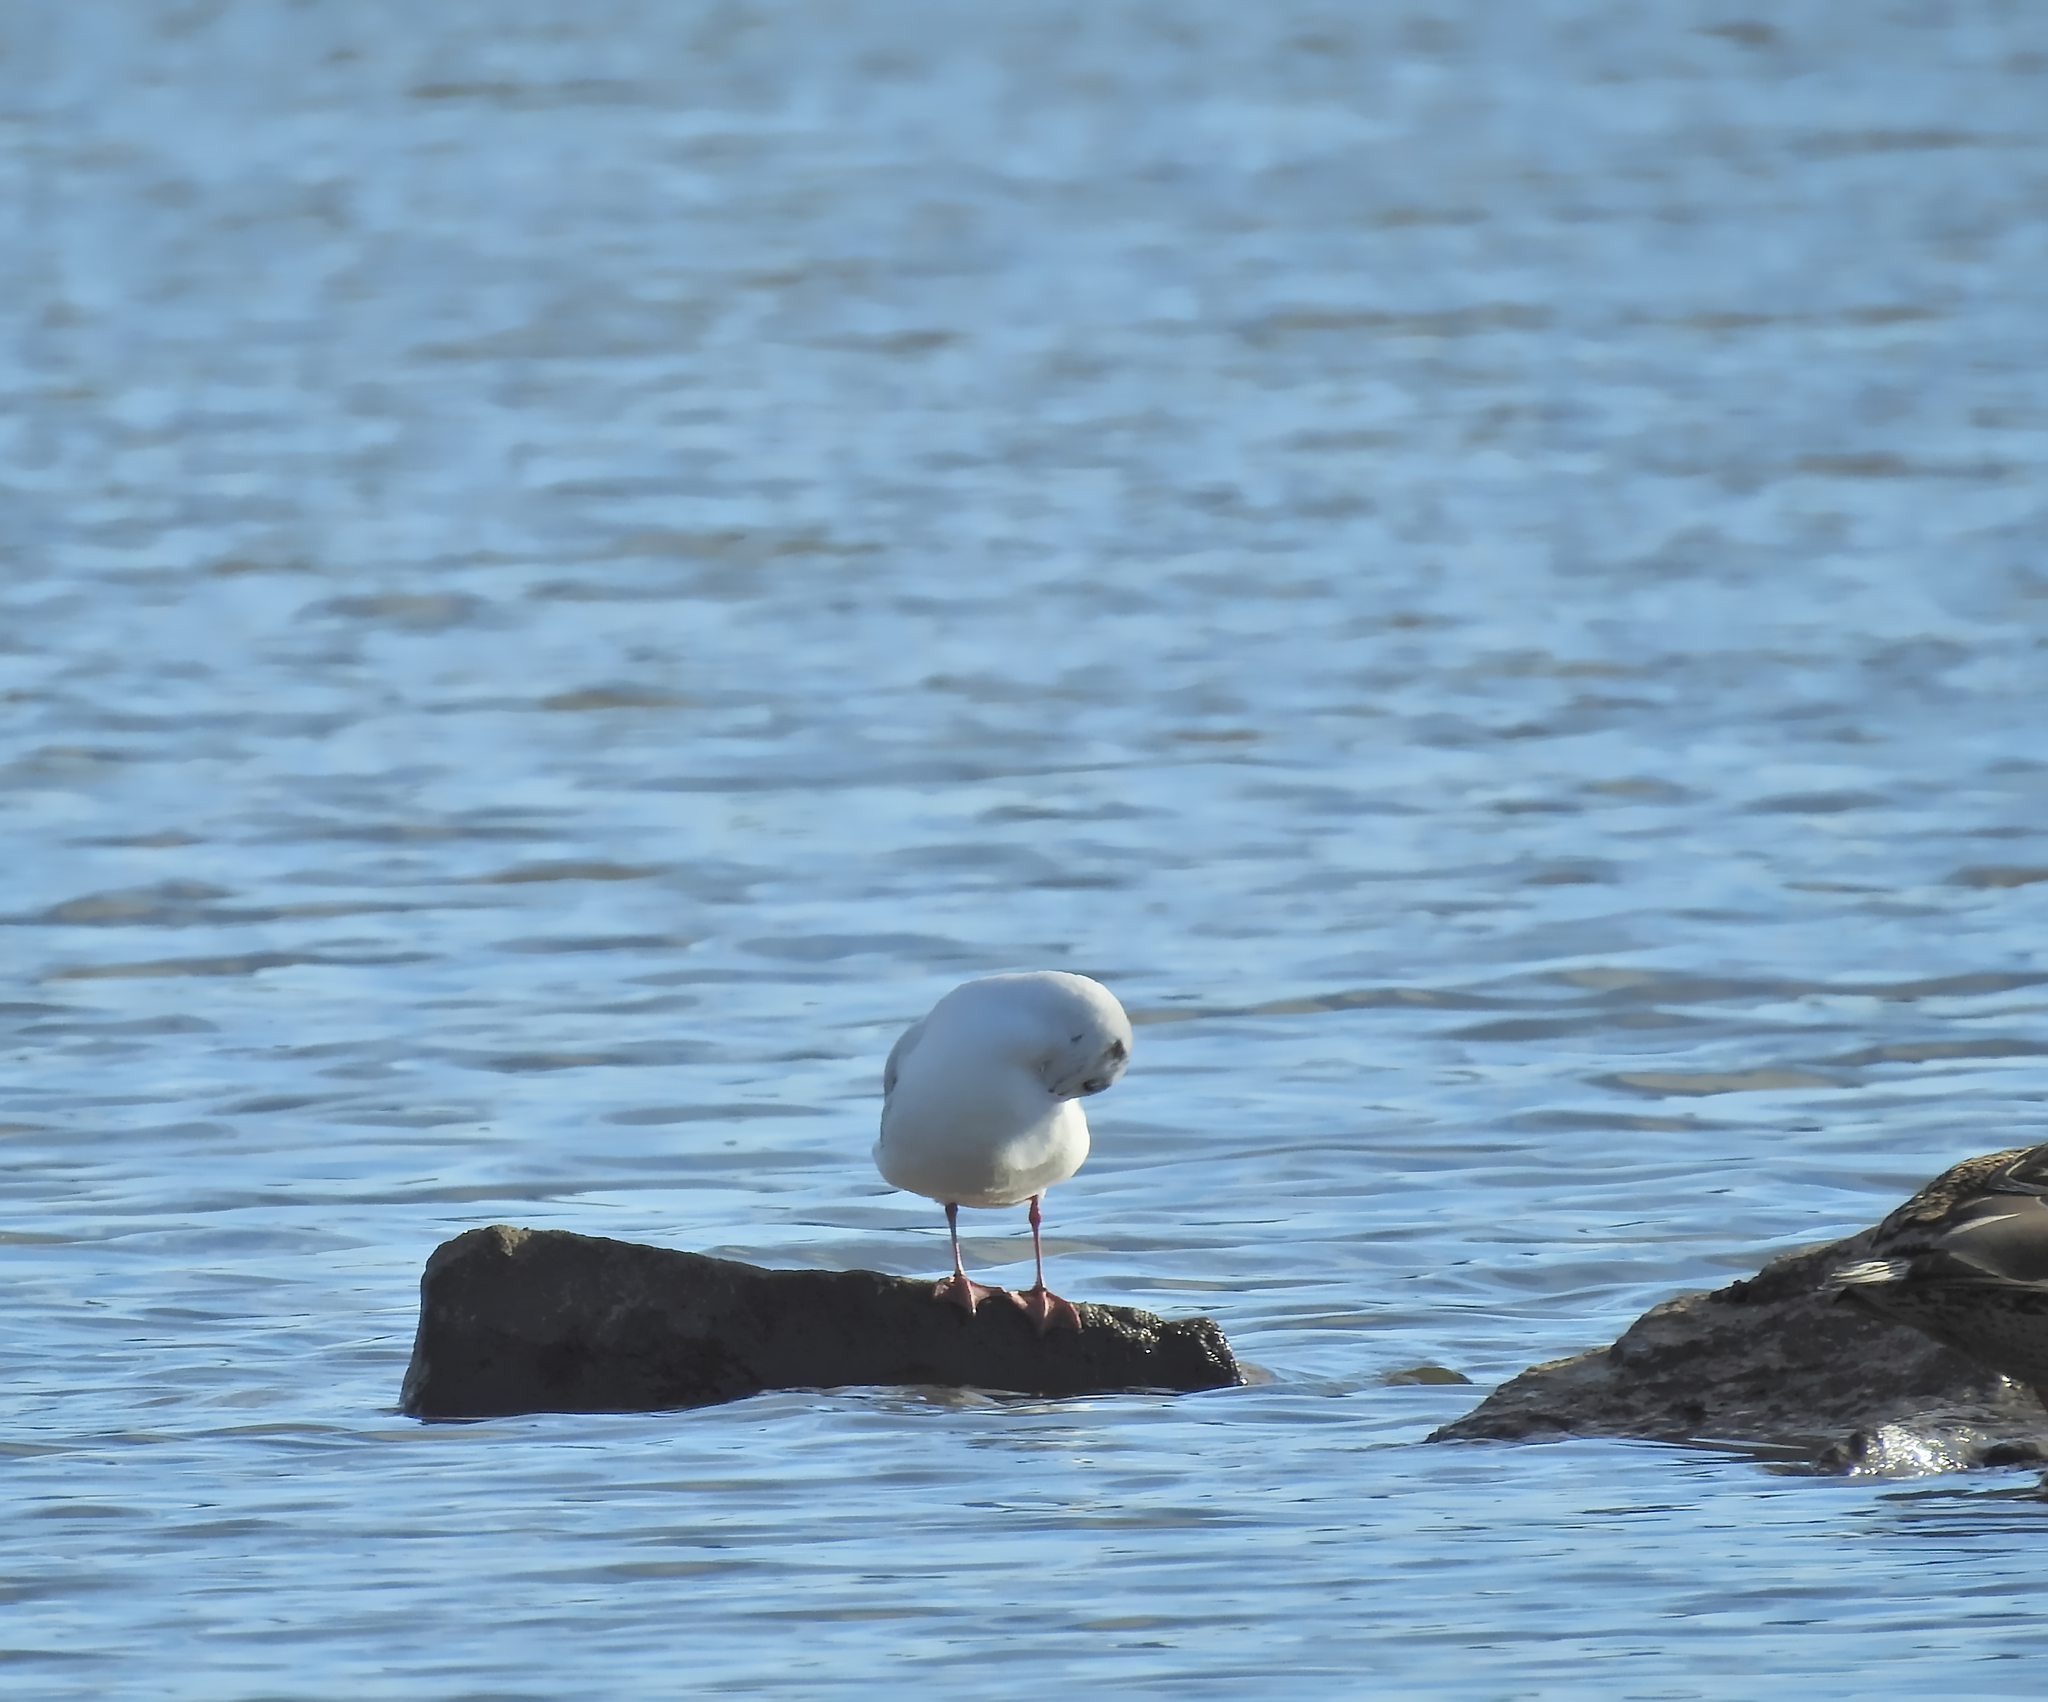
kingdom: Animalia
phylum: Chordata
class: Aves
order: Charadriiformes
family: Laridae
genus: Chroicocephalus
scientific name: Chroicocephalus ridibundus
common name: Black-headed gull
